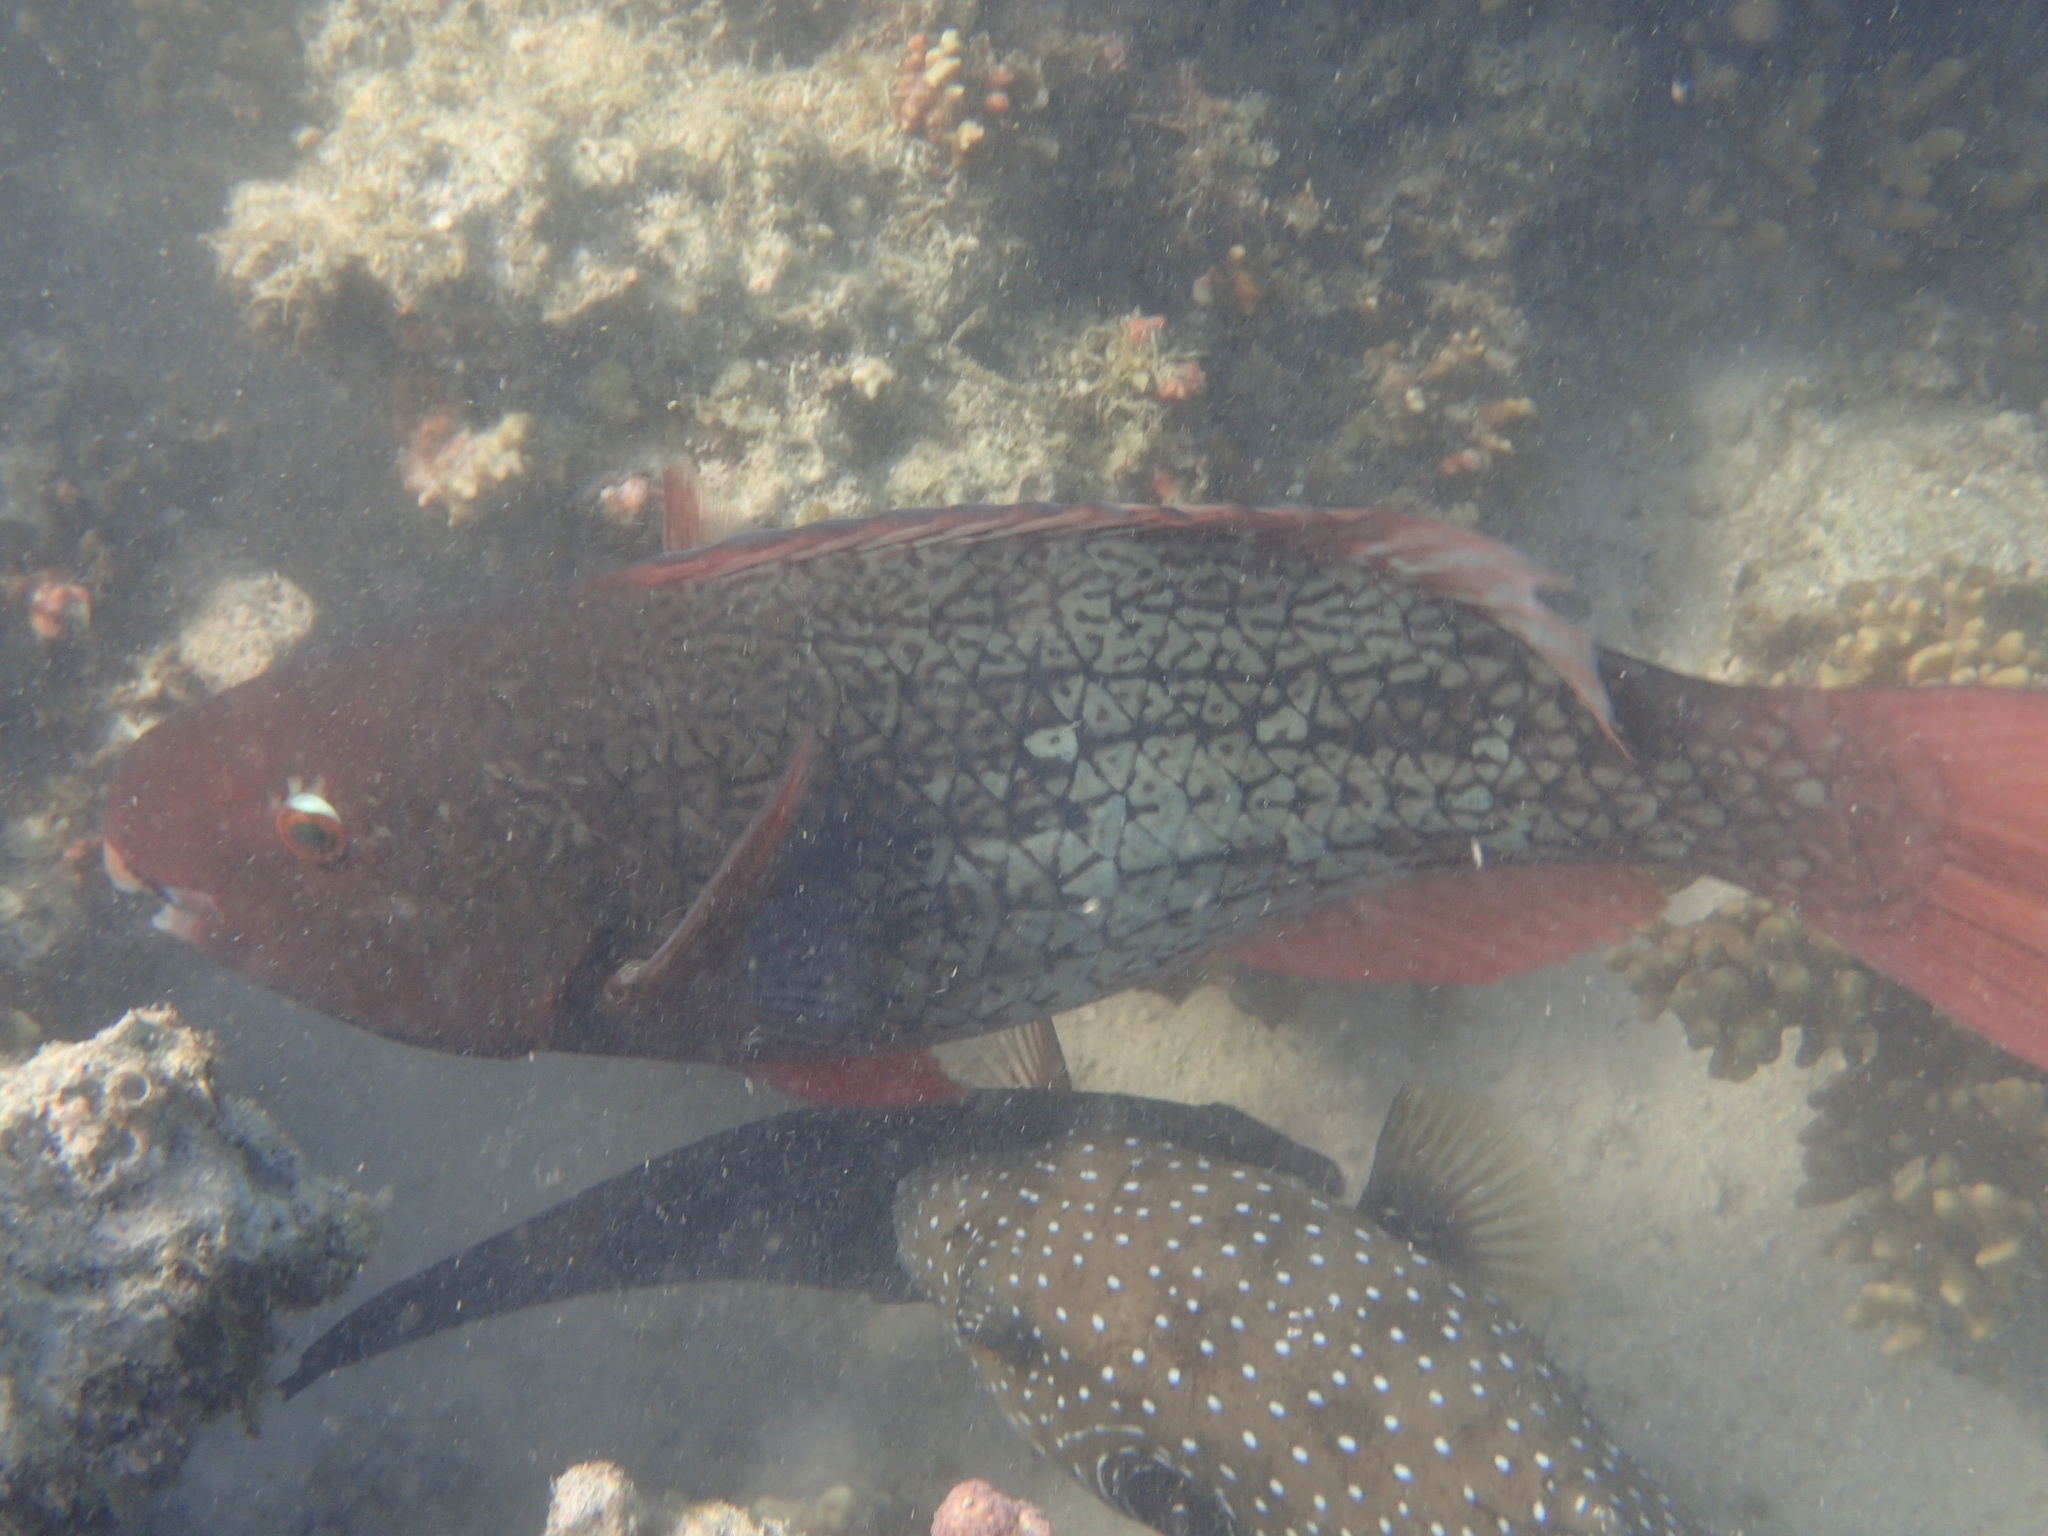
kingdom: Animalia
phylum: Chordata
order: Perciformes
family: Scaridae
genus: Scarus
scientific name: Scarus rubroviolaceus
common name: Ember parrotfish
